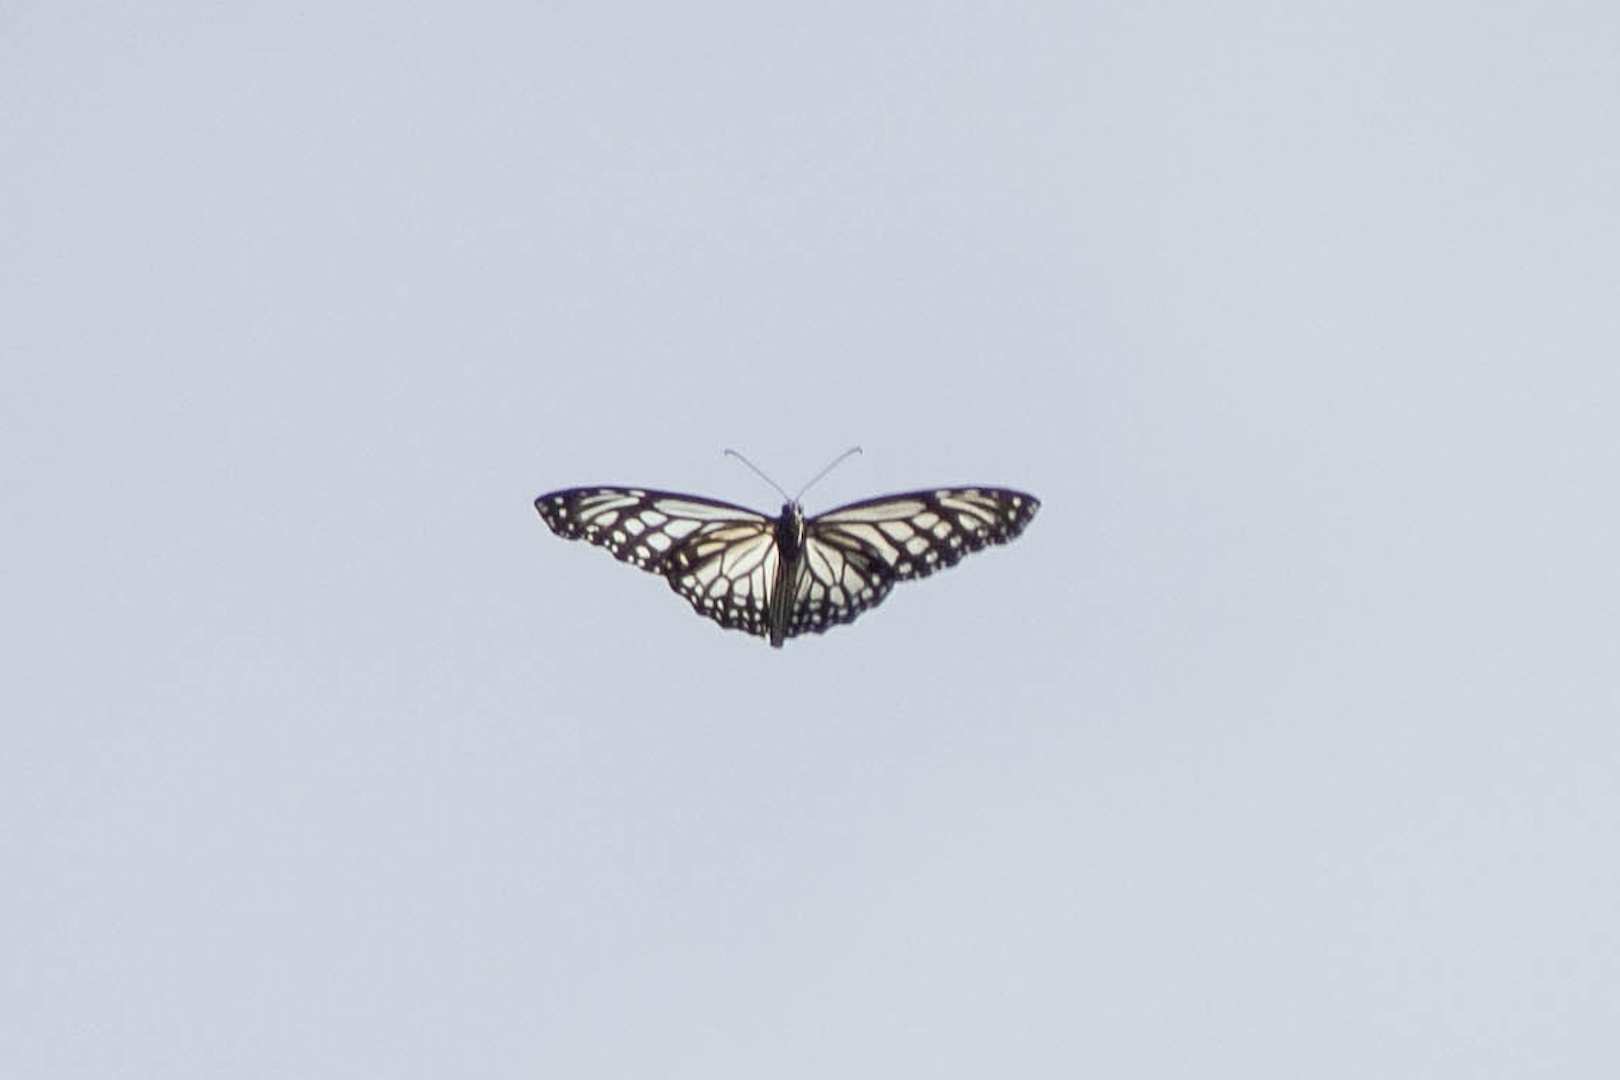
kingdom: Animalia
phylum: Arthropoda
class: Insecta
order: Lepidoptera
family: Nymphalidae
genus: Parantica
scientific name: Parantica aglea
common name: Glassy tiger
